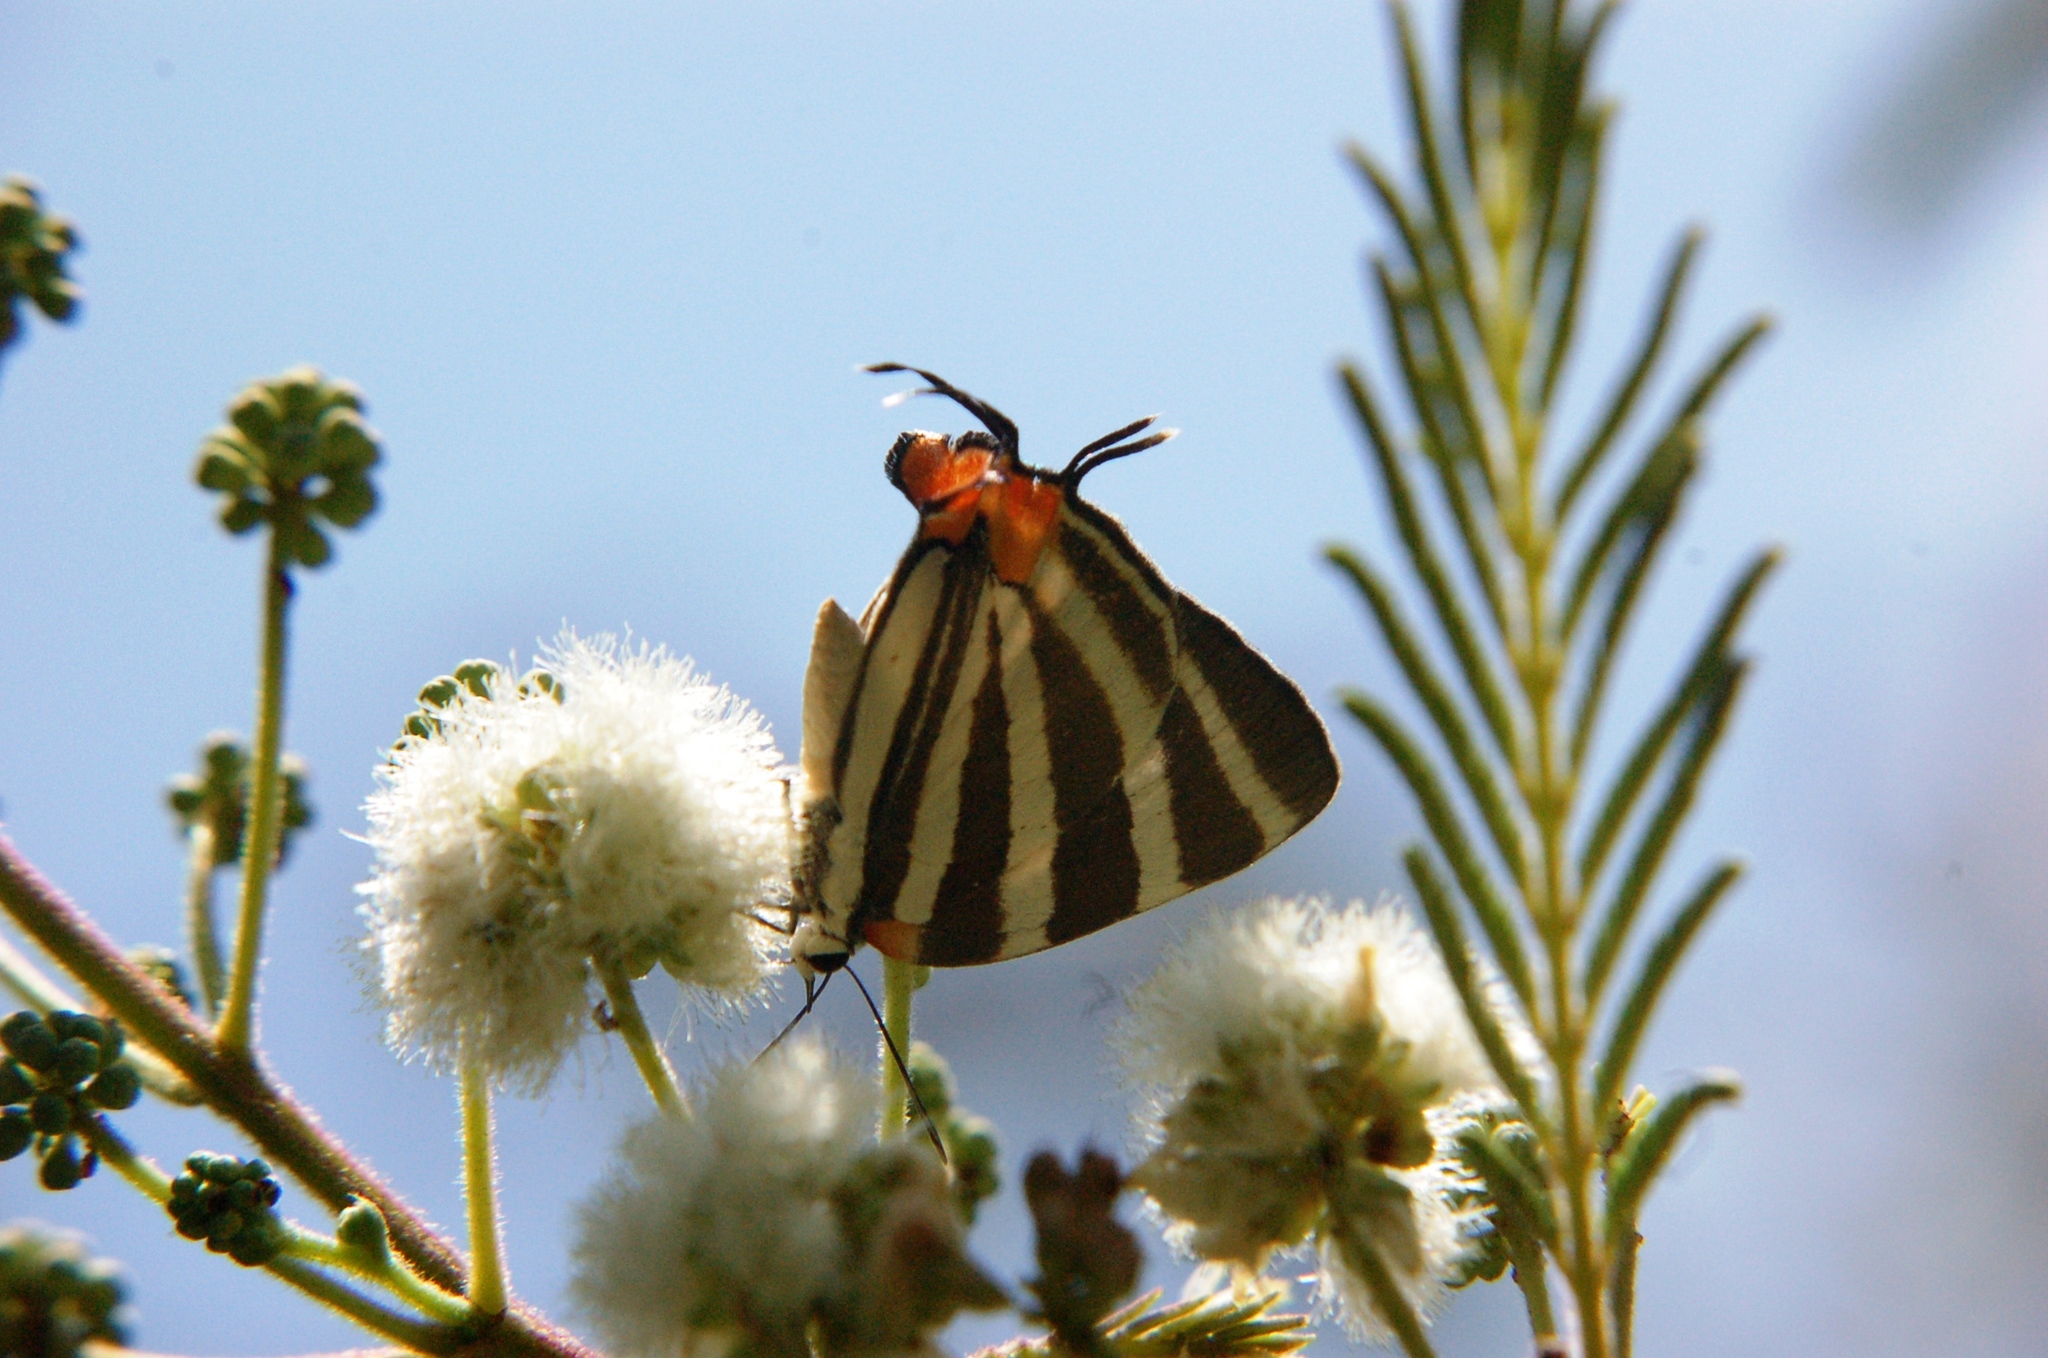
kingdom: Animalia
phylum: Arthropoda
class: Insecta
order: Lepidoptera
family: Lycaenidae
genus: Thecla
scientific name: Thecla bathildis
